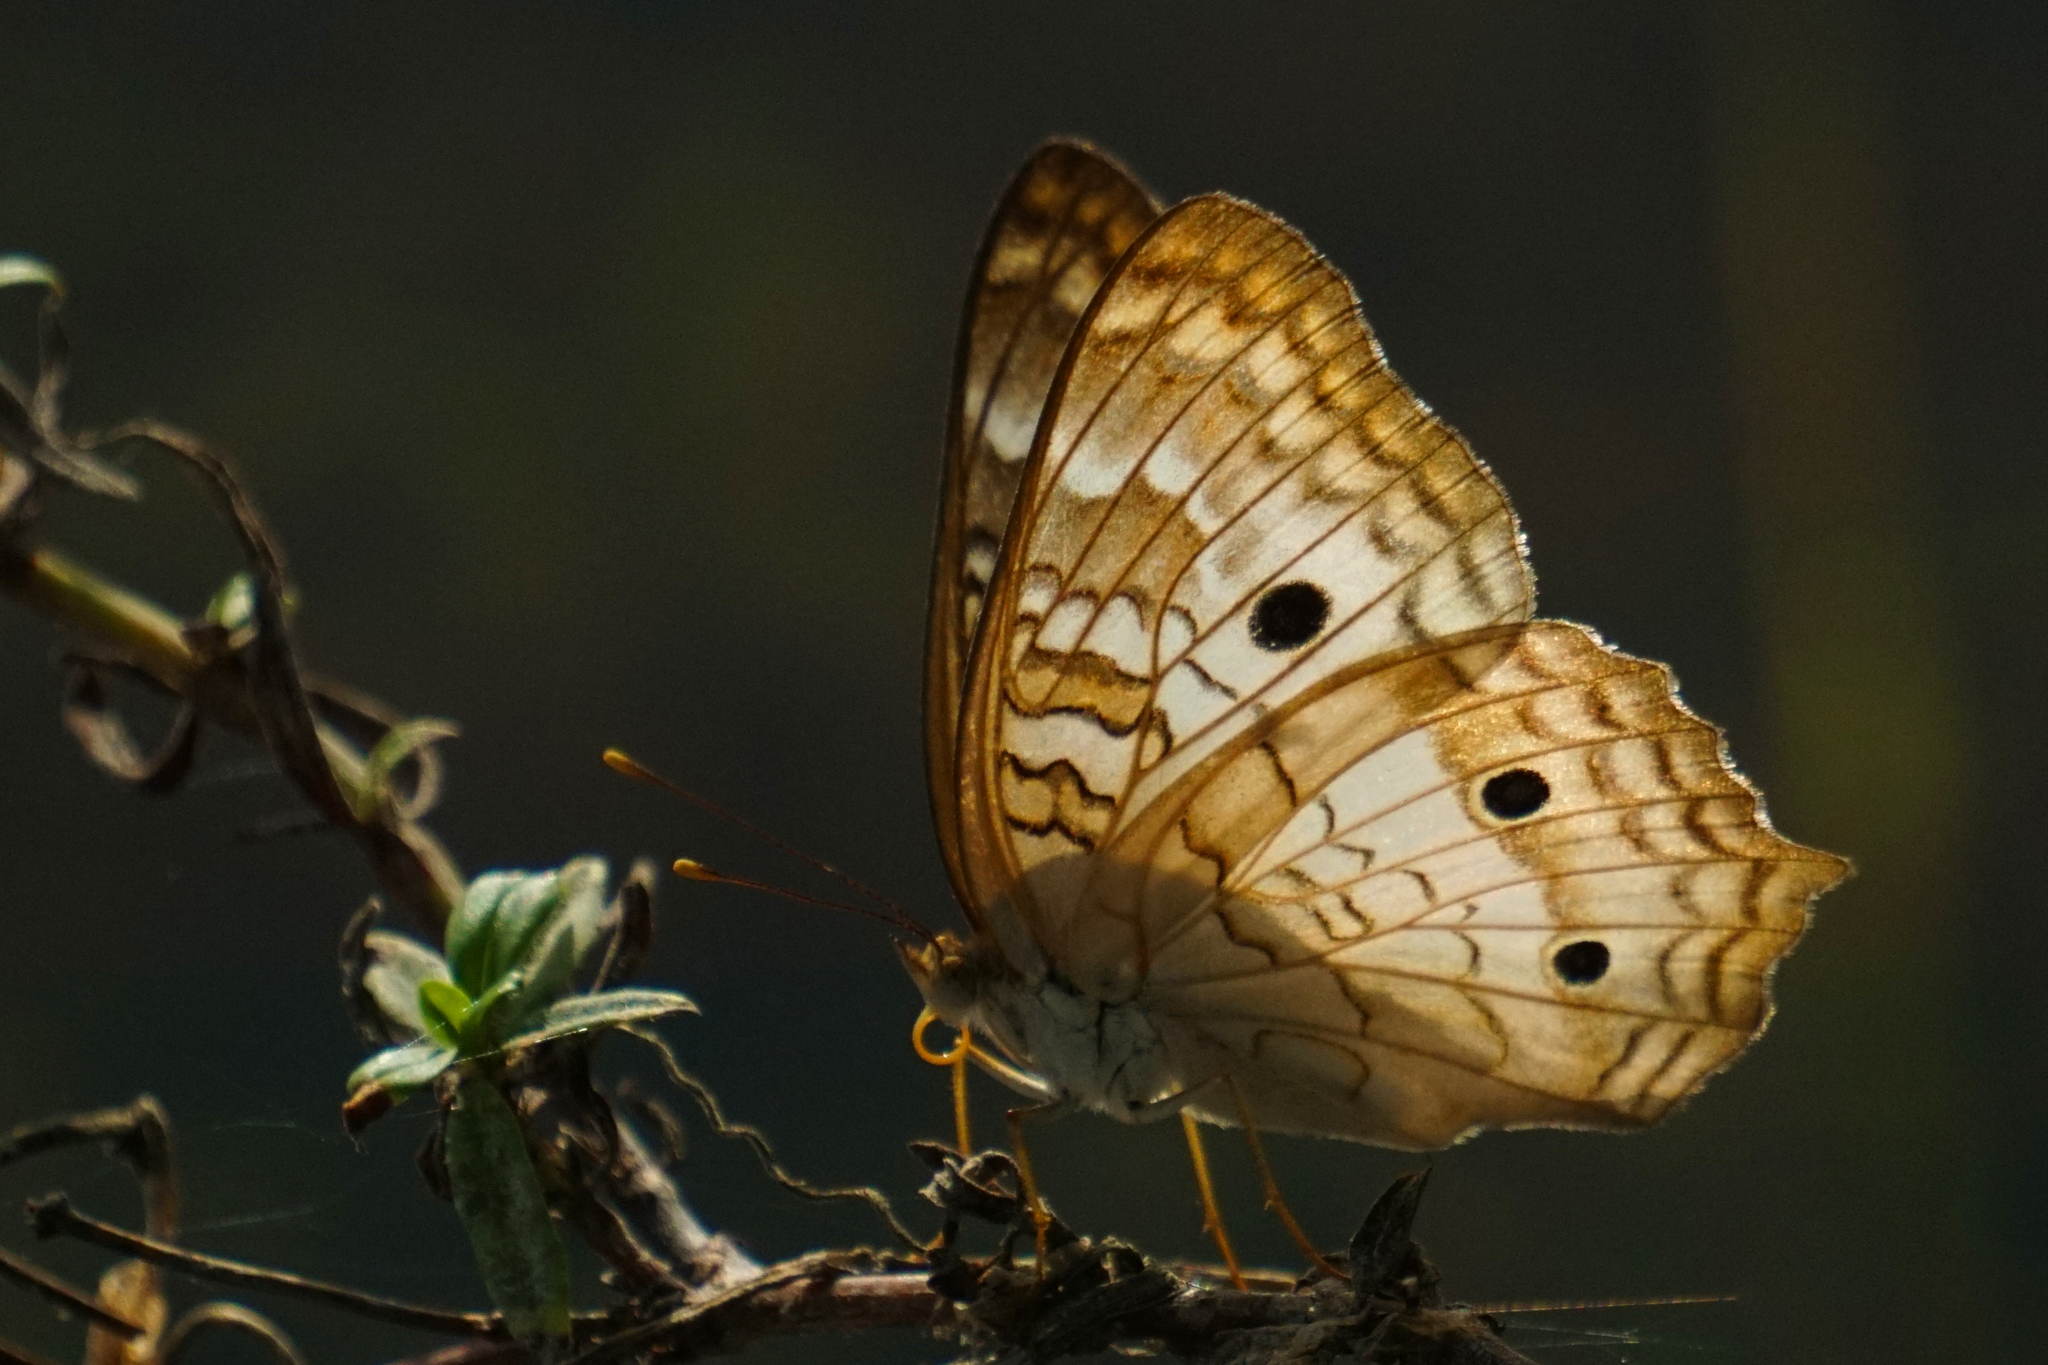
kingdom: Animalia
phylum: Arthropoda
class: Insecta
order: Lepidoptera
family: Nymphalidae
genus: Anartia
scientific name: Anartia jatrophae
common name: White peacock
